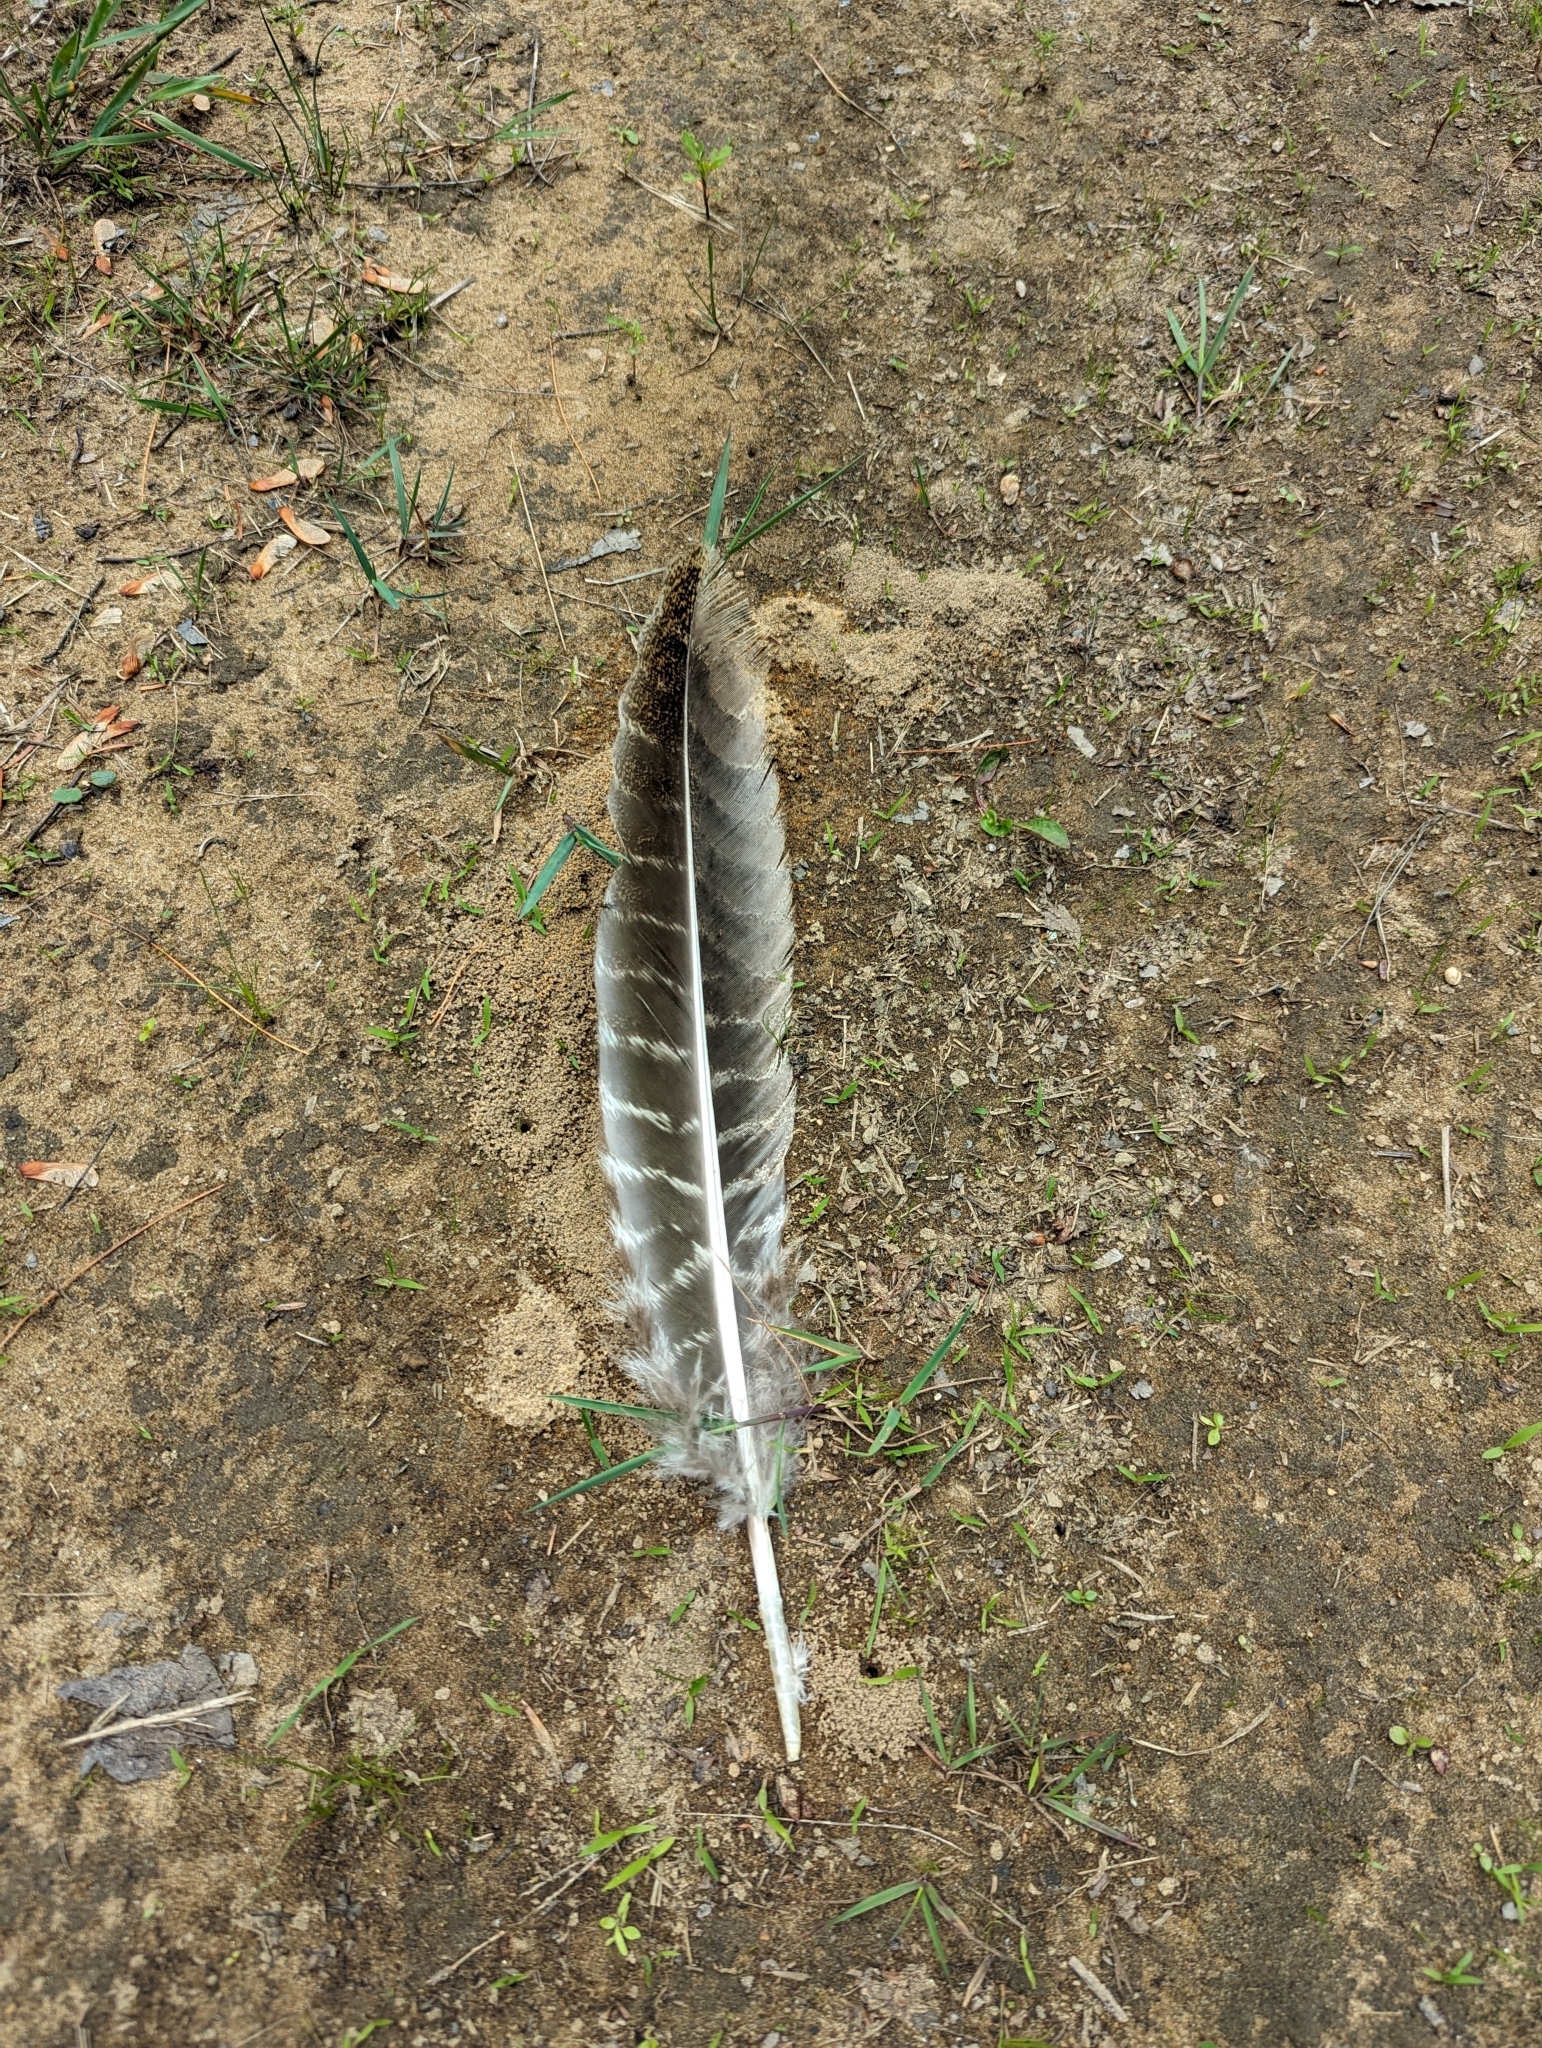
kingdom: Animalia
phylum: Chordata
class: Aves
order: Galliformes
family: Phasianidae
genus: Meleagris
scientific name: Meleagris gallopavo
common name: Wild turkey
